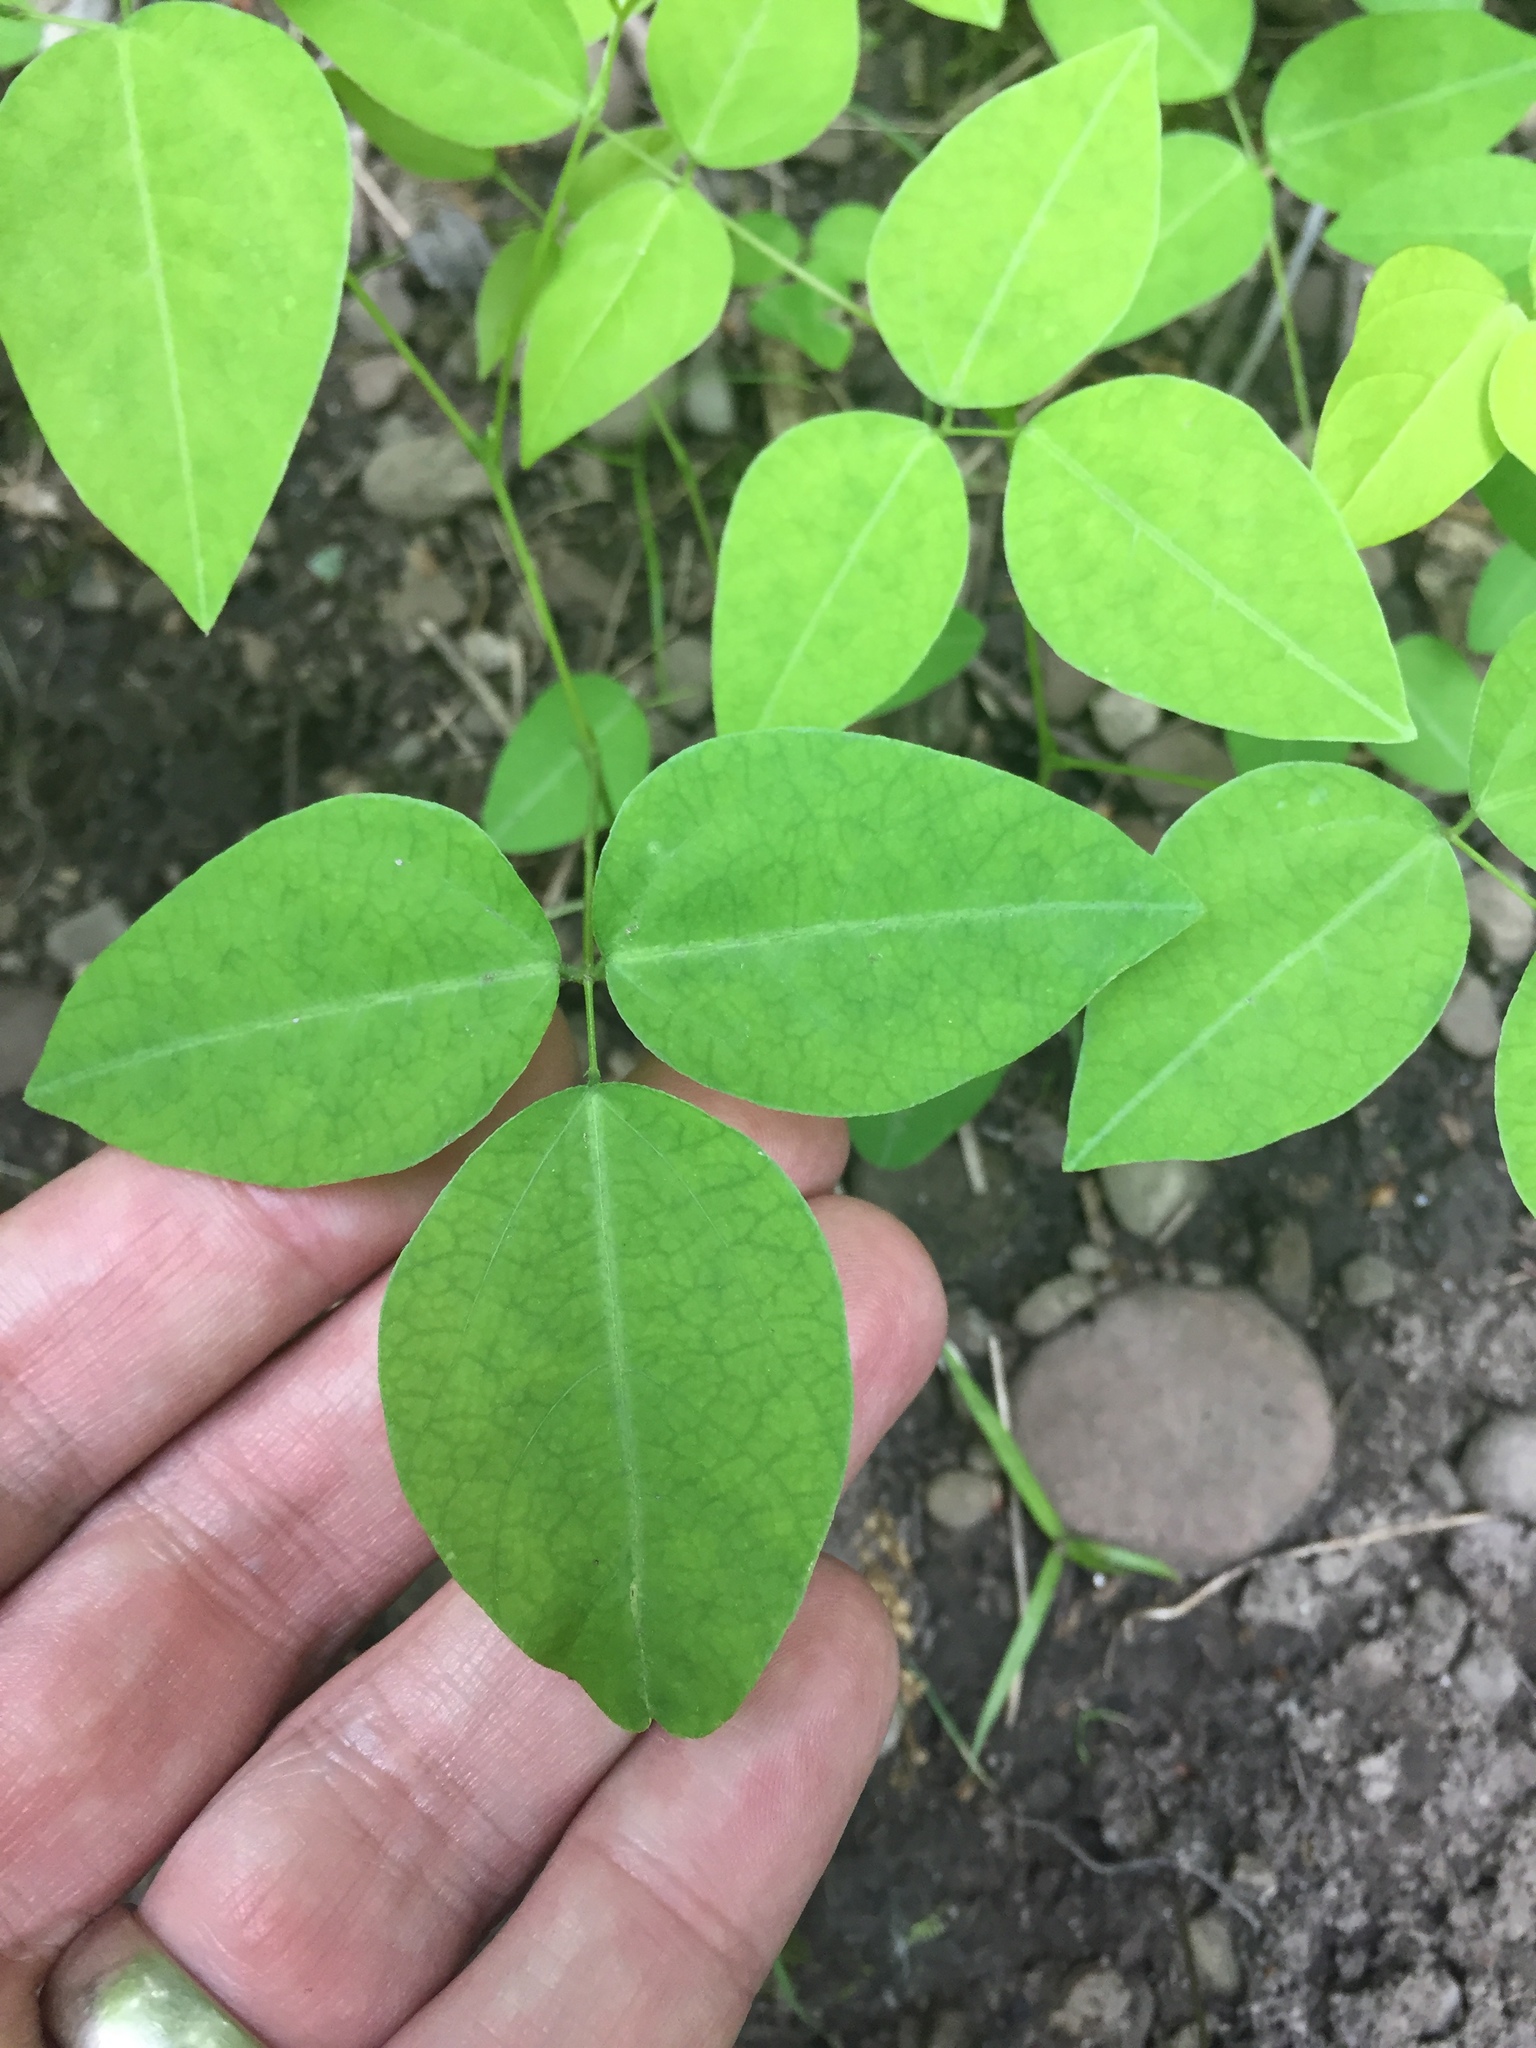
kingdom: Plantae
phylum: Tracheophyta
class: Magnoliopsida
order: Fabales
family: Fabaceae
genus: Amphicarpaea
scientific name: Amphicarpaea bracteata
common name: American hog peanut
